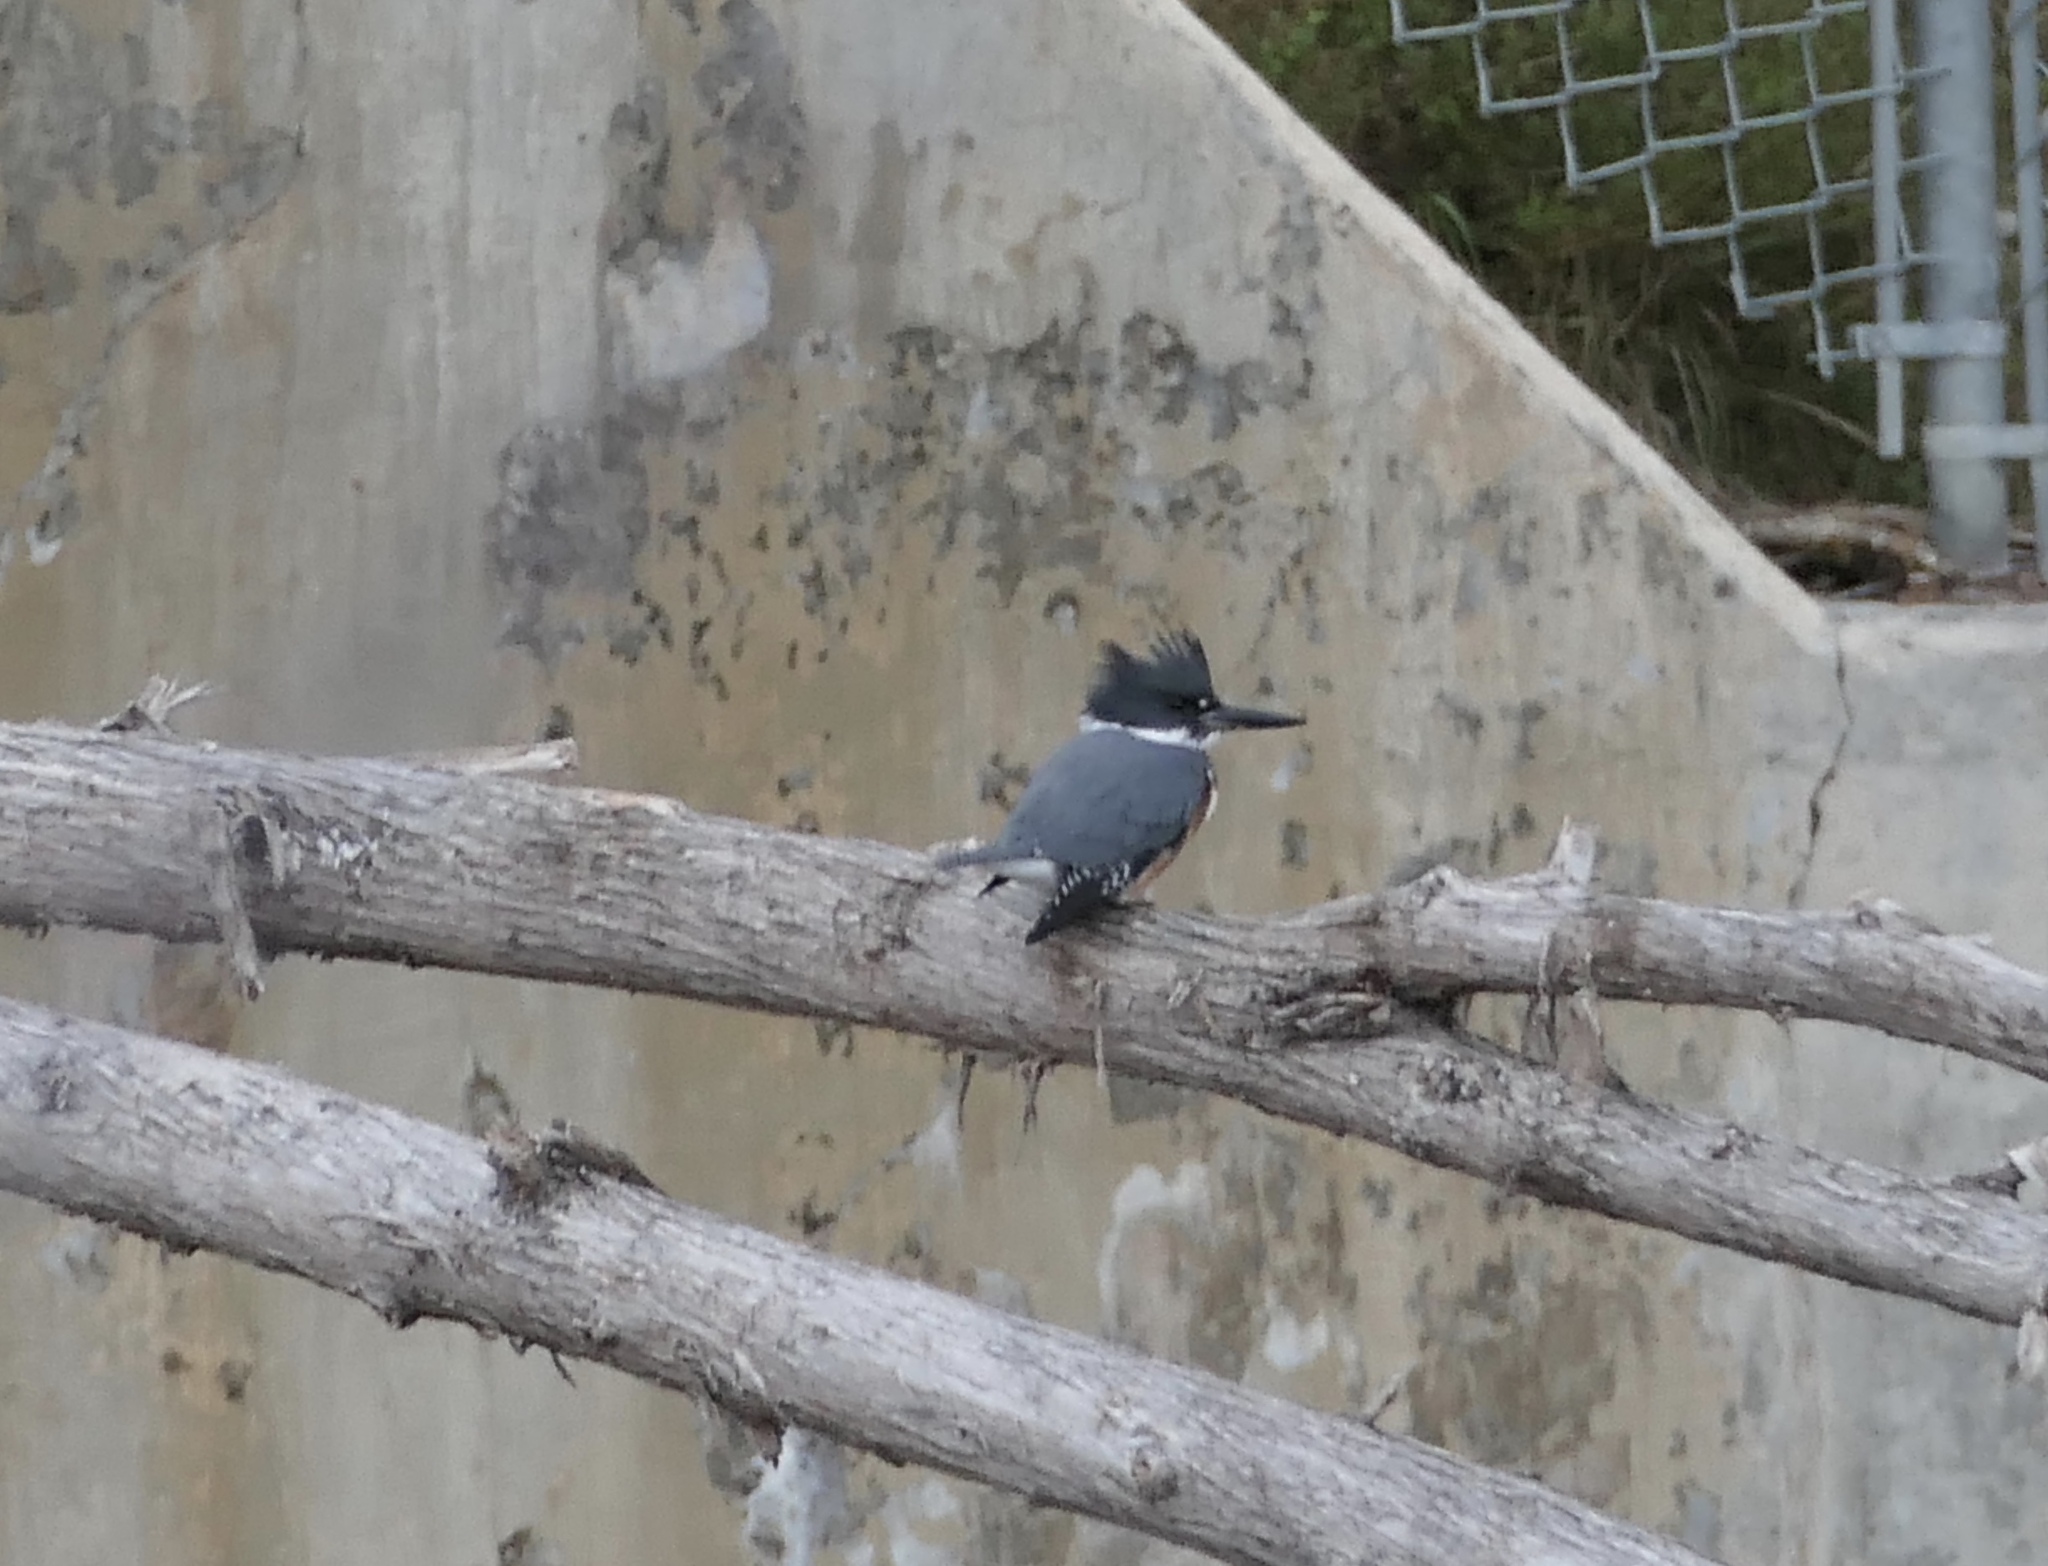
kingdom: Animalia
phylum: Chordata
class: Aves
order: Coraciiformes
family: Alcedinidae
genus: Megaceryle
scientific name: Megaceryle alcyon
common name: Belted kingfisher
